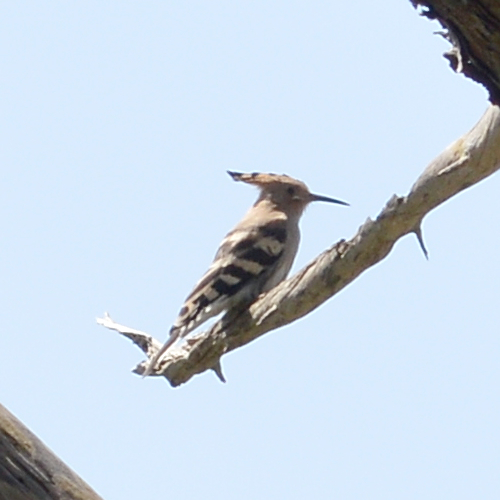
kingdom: Animalia
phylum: Chordata
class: Aves
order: Bucerotiformes
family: Upupidae
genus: Upupa
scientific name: Upupa epops
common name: Eurasian hoopoe
